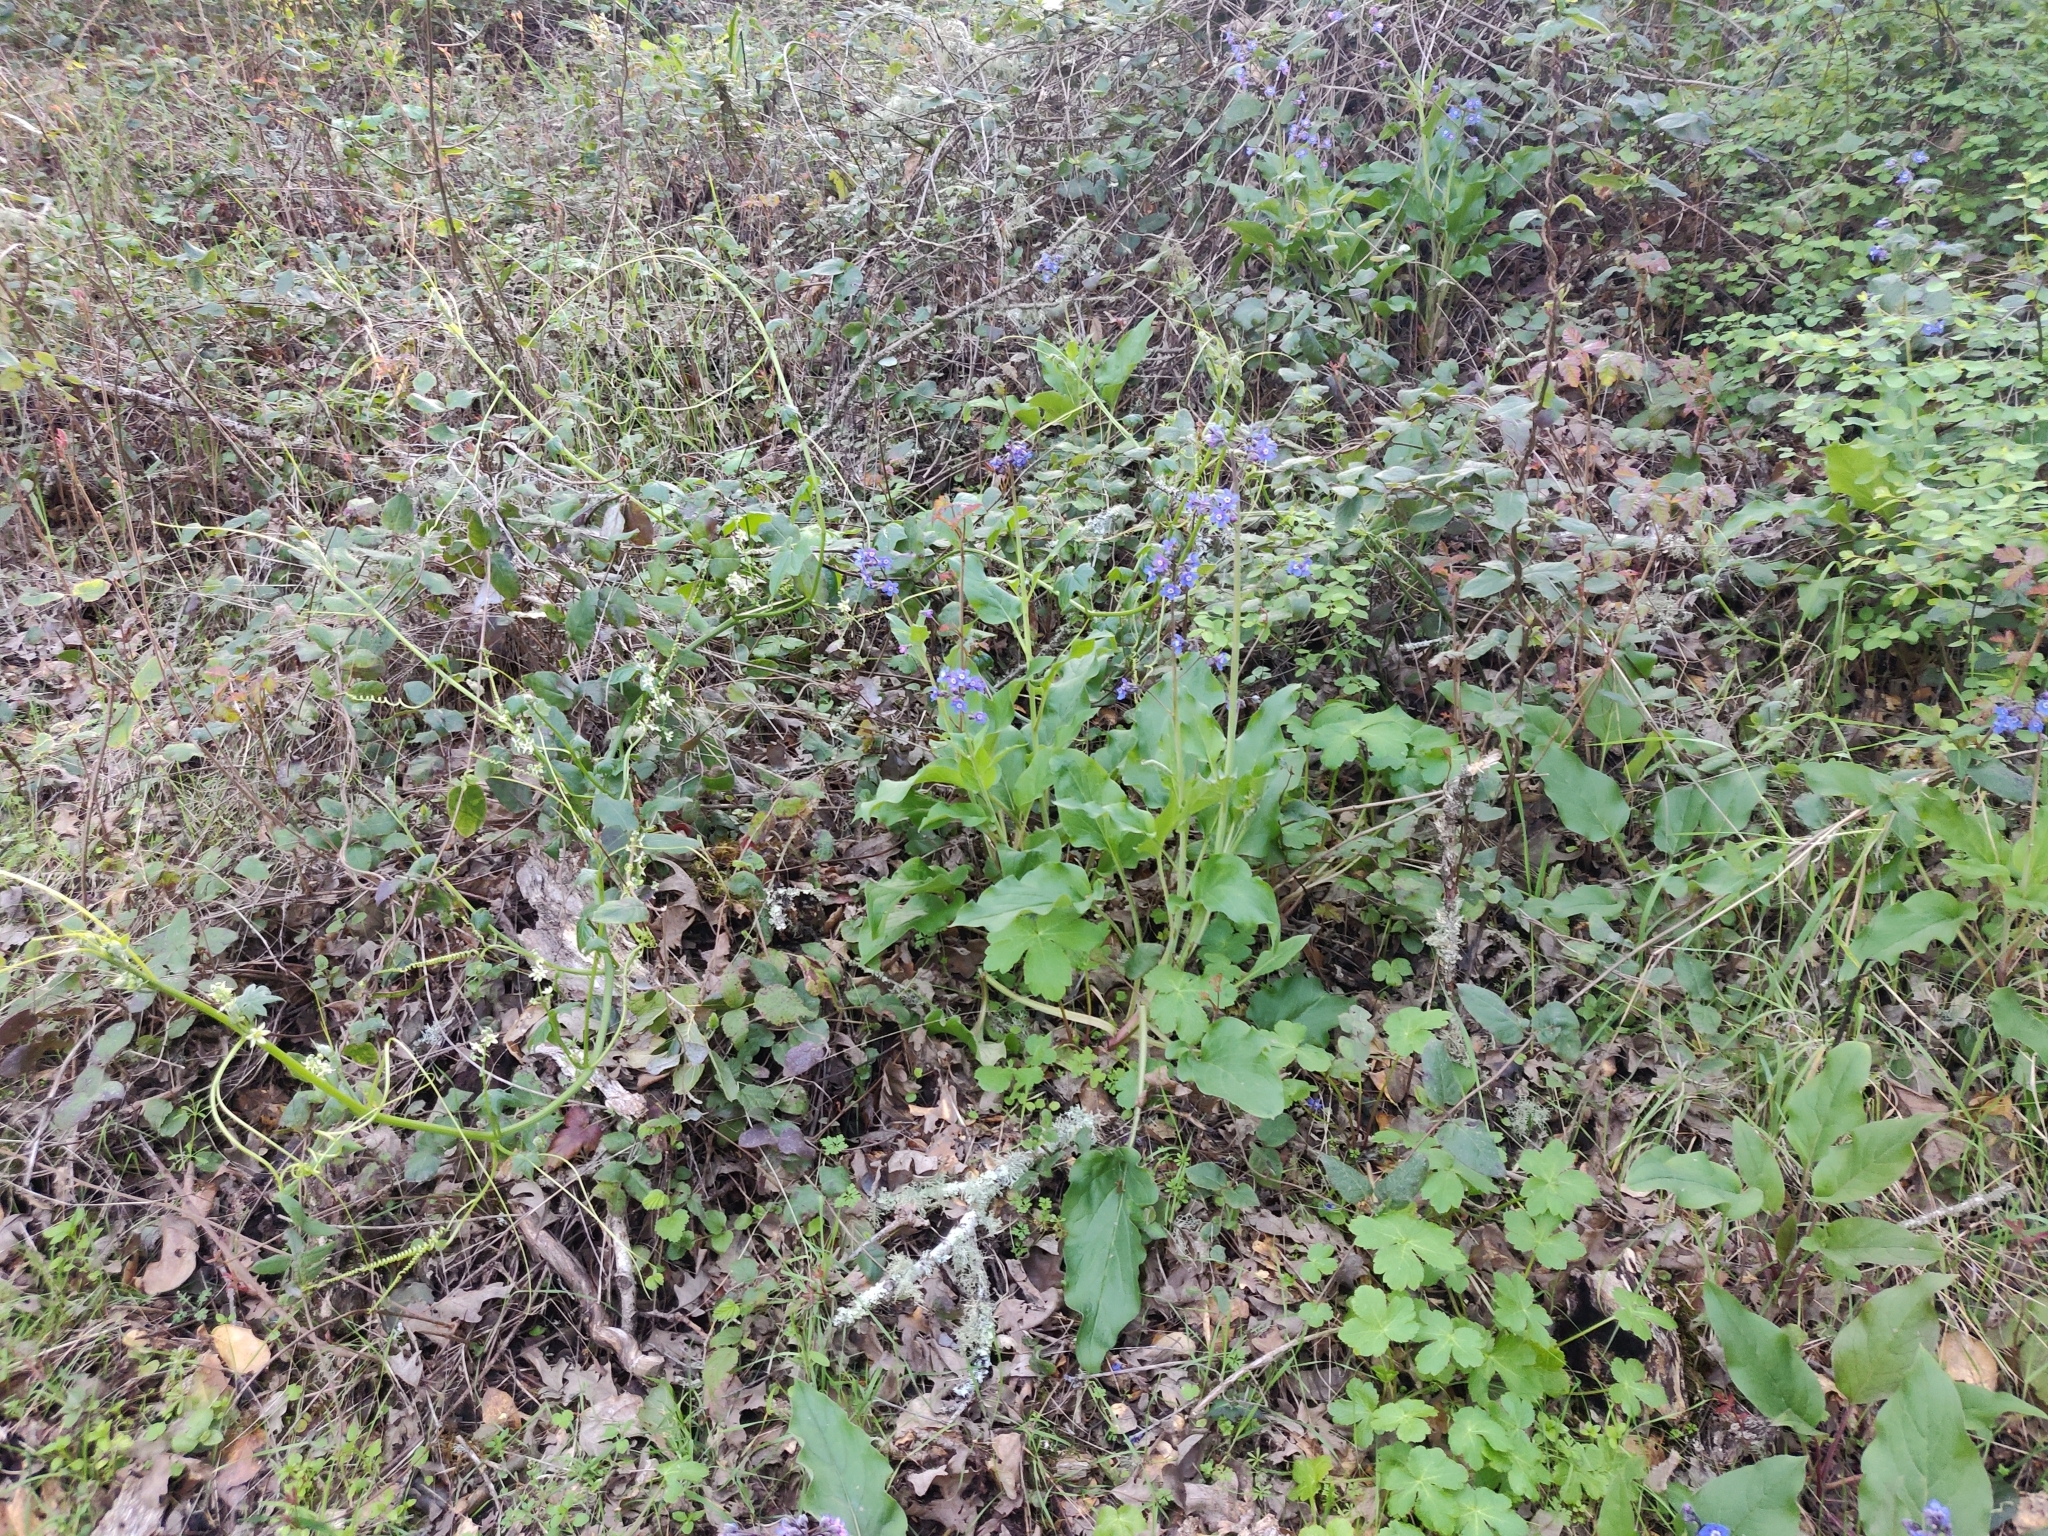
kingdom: Plantae
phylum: Tracheophyta
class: Magnoliopsida
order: Boraginales
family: Boraginaceae
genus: Adelinia
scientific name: Adelinia grande
